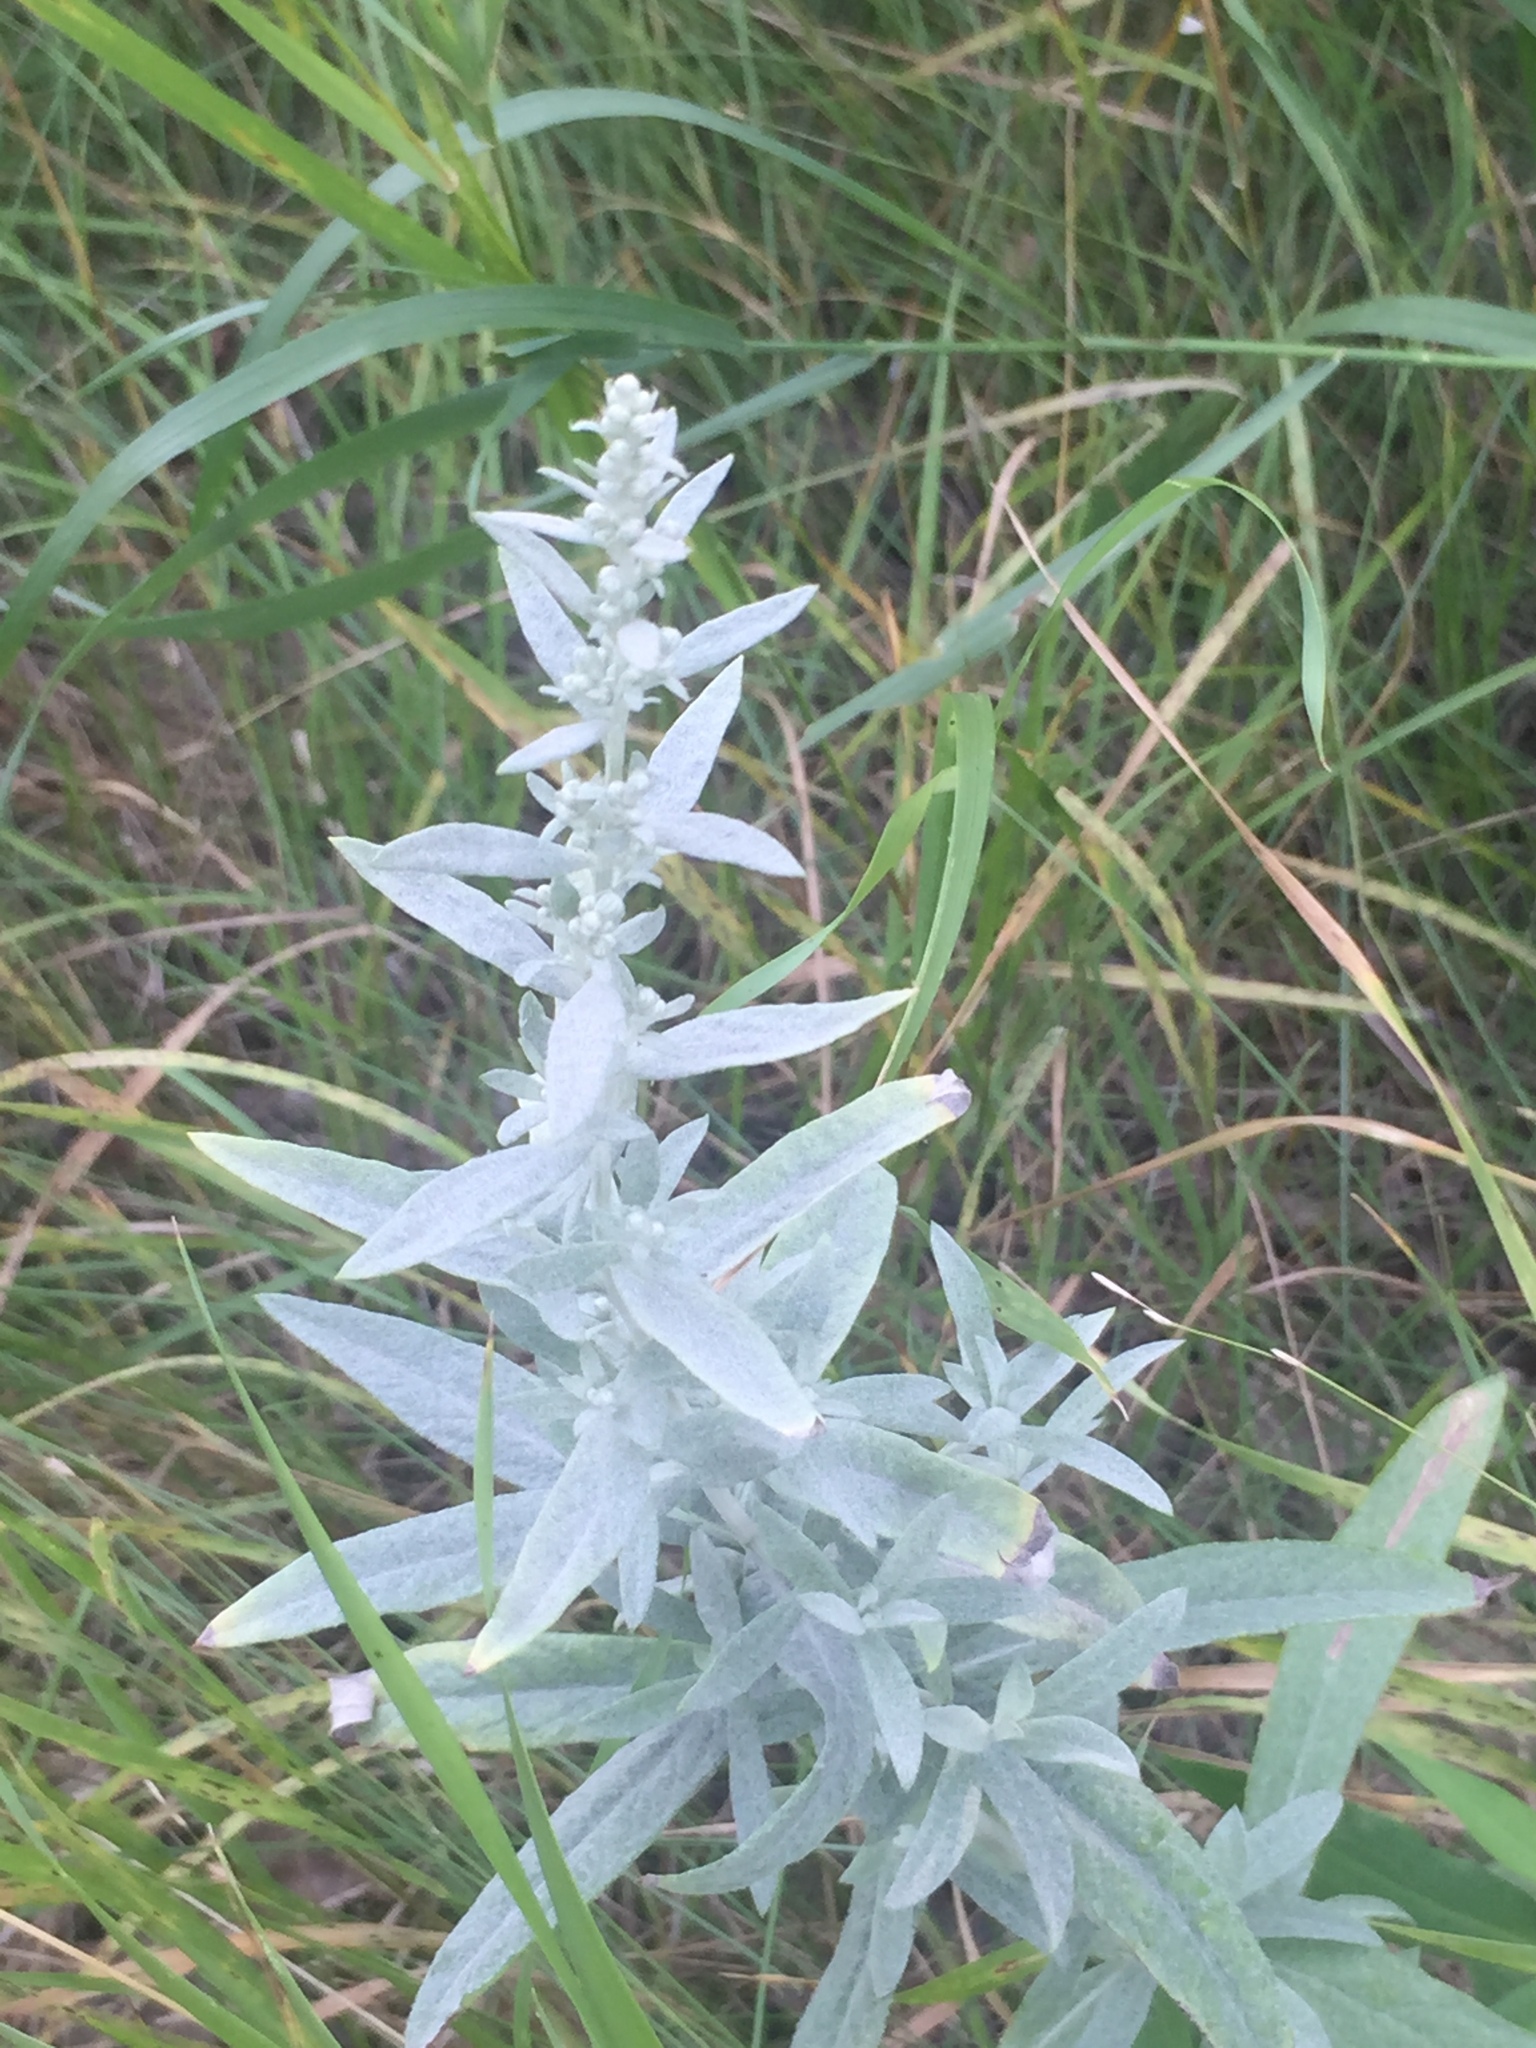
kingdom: Plantae
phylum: Tracheophyta
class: Magnoliopsida
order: Asterales
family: Asteraceae
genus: Artemisia
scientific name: Artemisia ludoviciana
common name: Western mugwort
